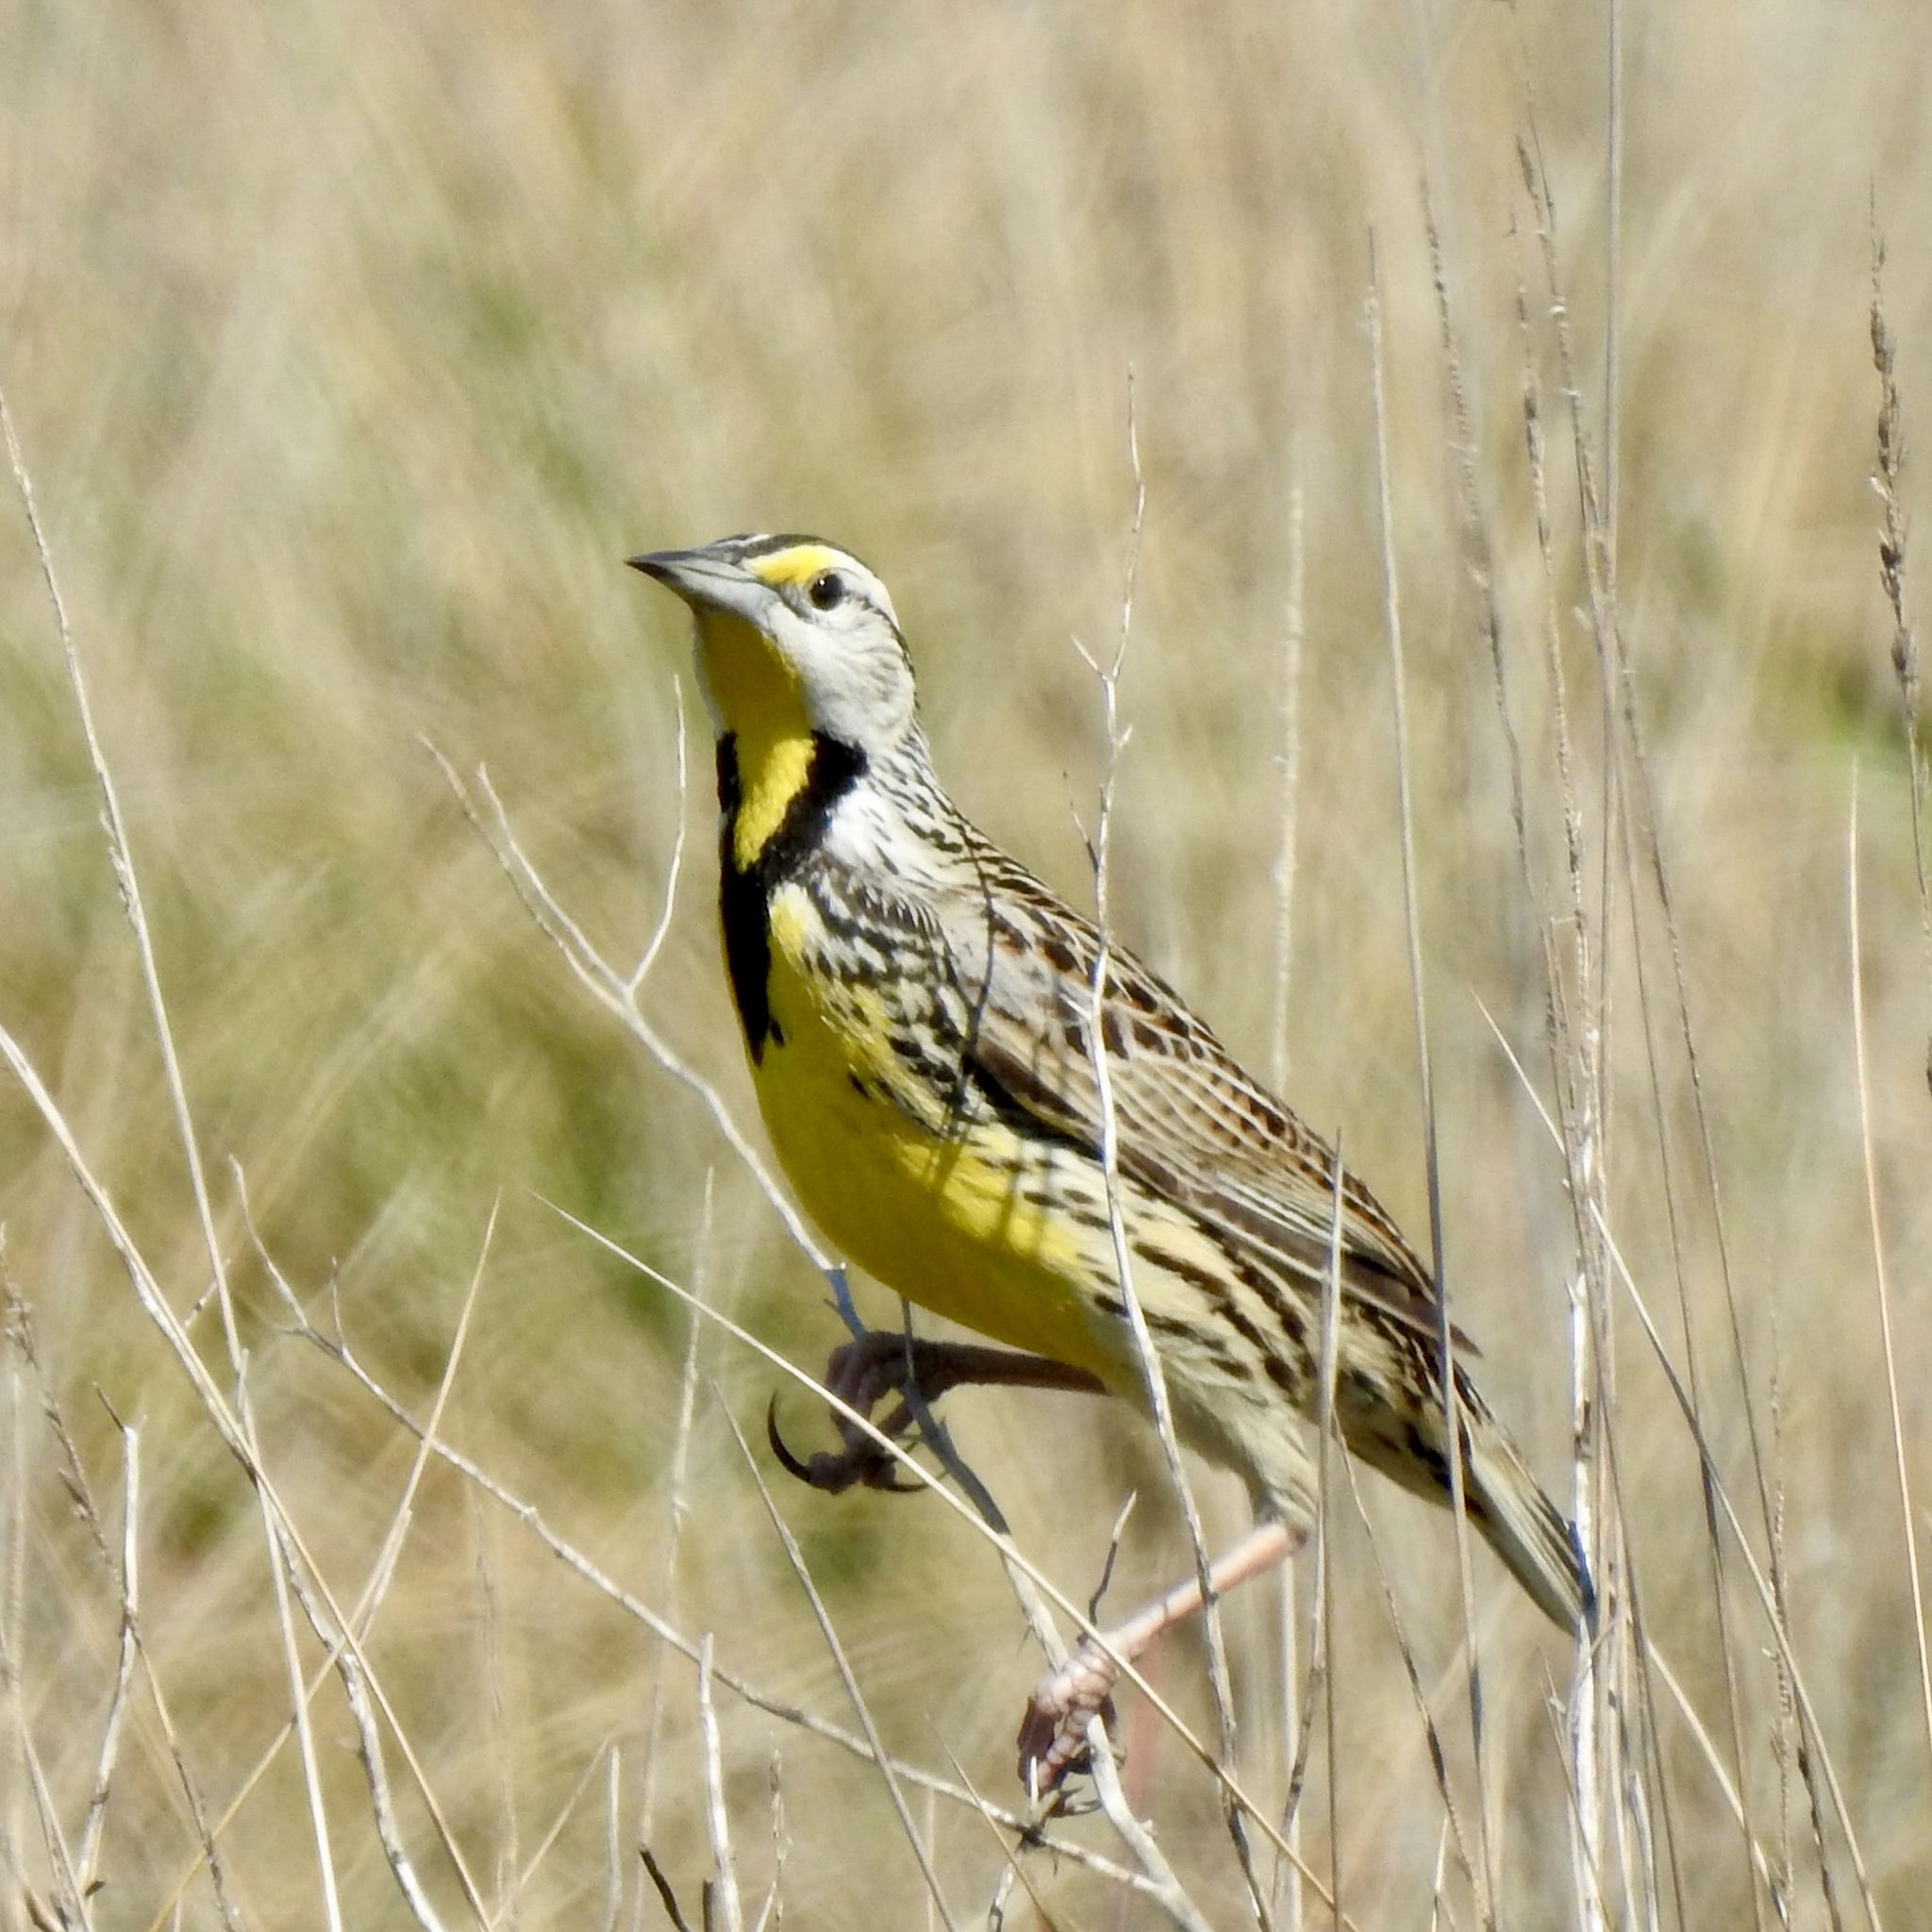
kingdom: Animalia
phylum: Chordata
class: Aves
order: Passeriformes
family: Icteridae
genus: Sturnella
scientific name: Sturnella magna
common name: Eastern meadowlark
